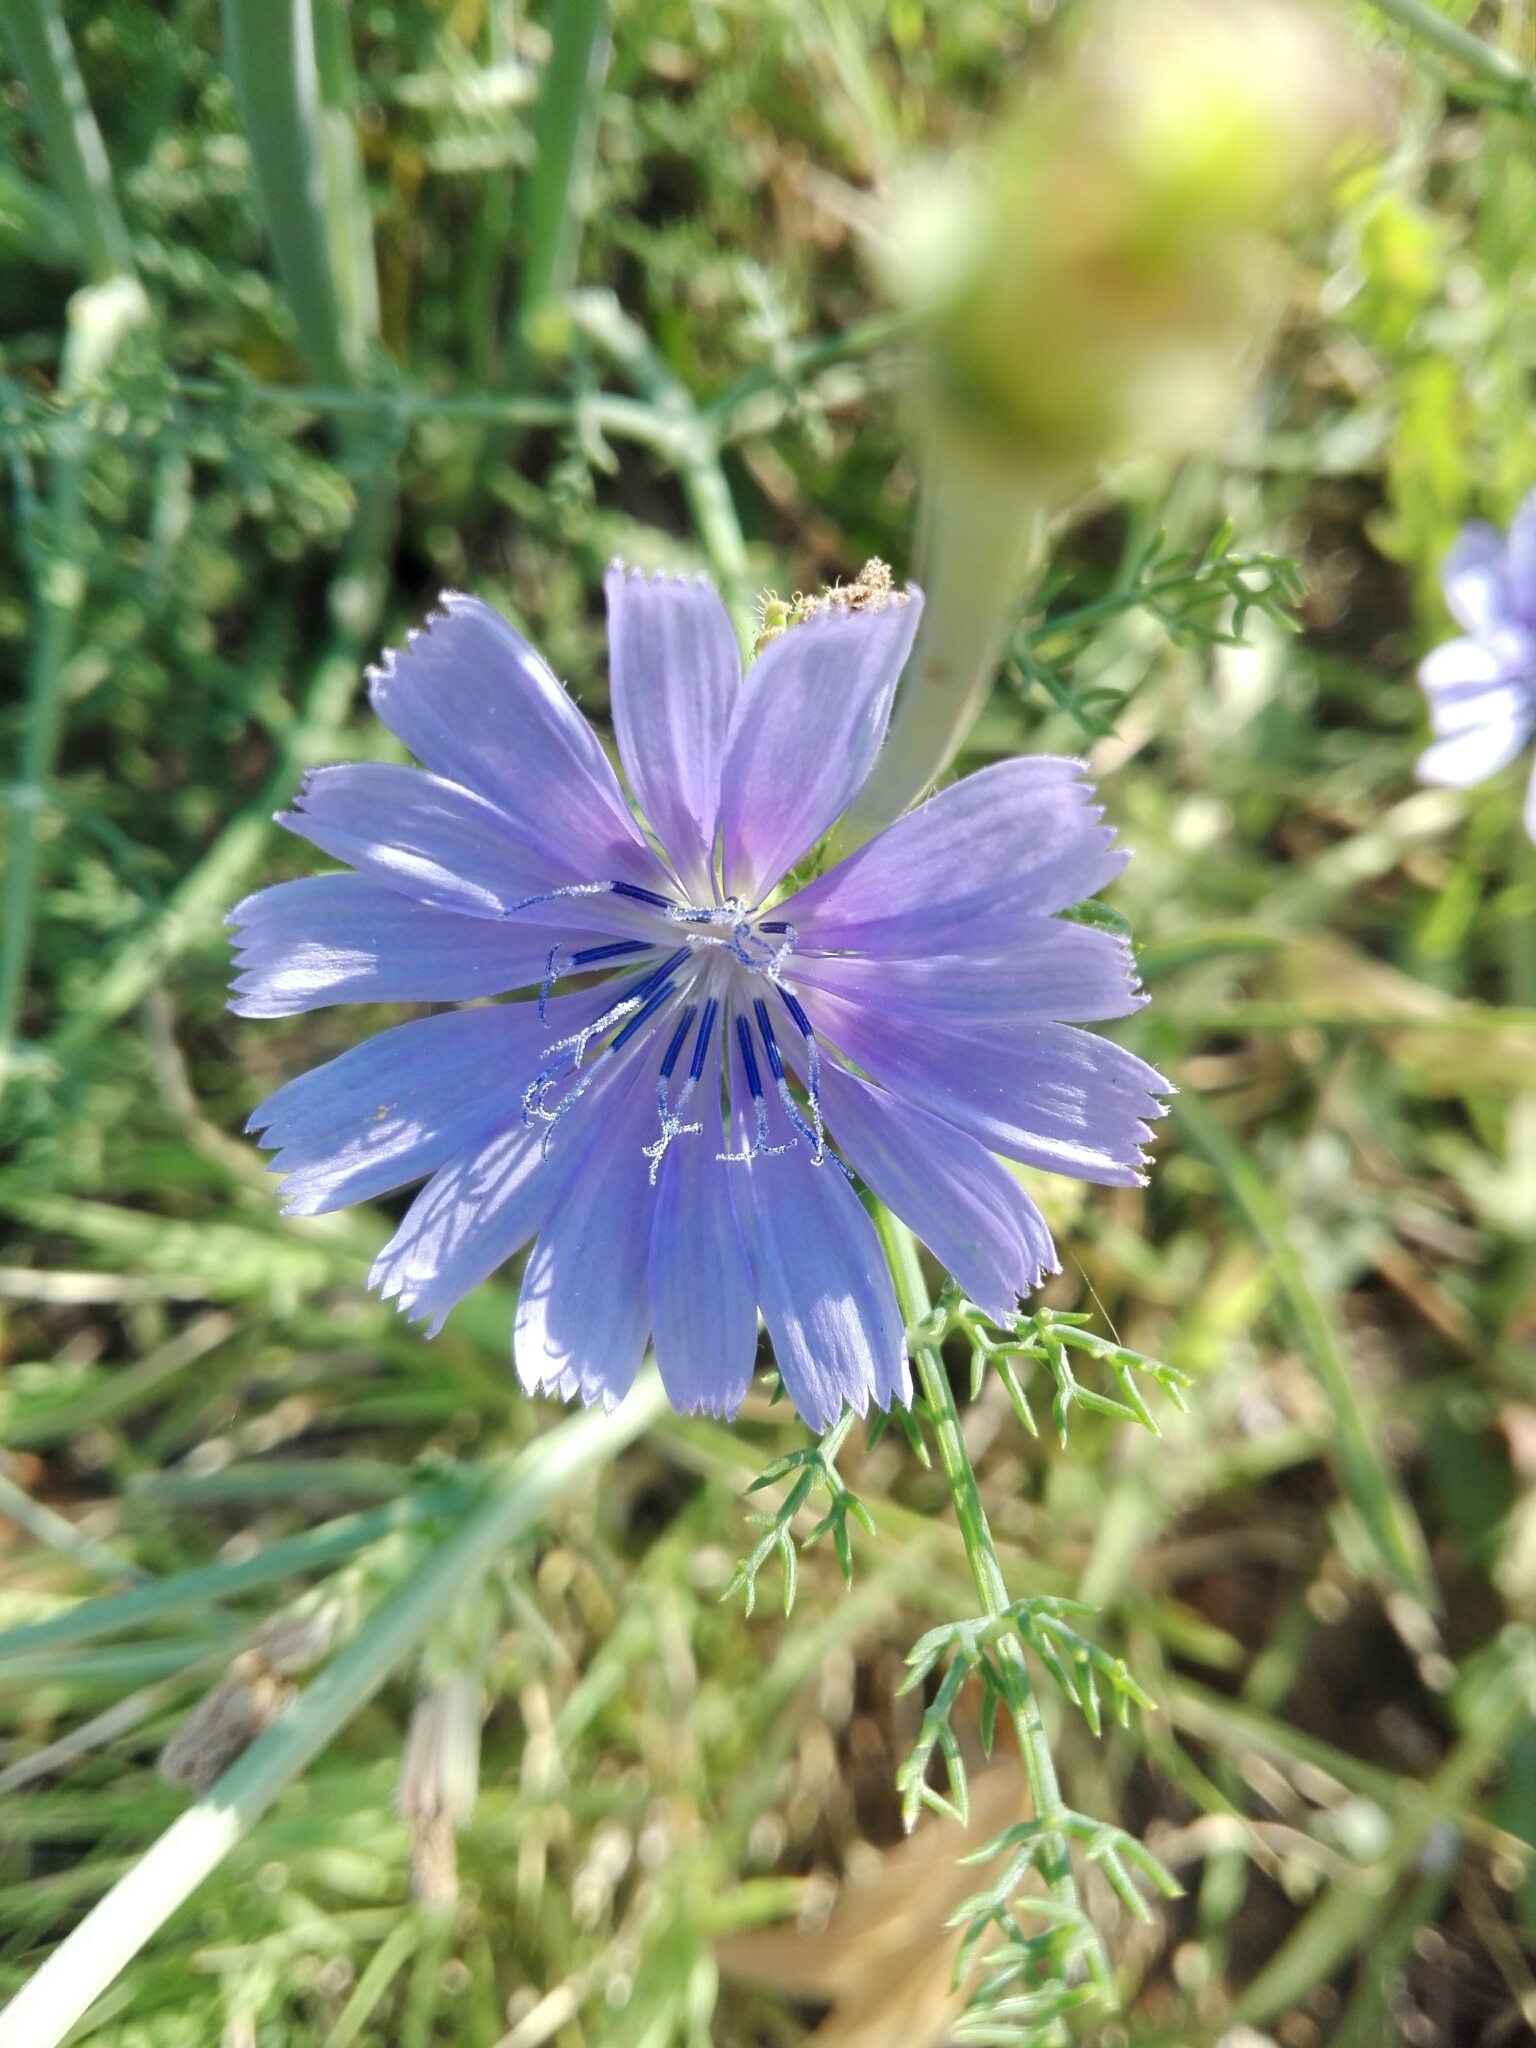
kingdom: Plantae
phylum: Tracheophyta
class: Magnoliopsida
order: Asterales
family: Asteraceae
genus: Cichorium
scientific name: Cichorium intybus
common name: Chicory
